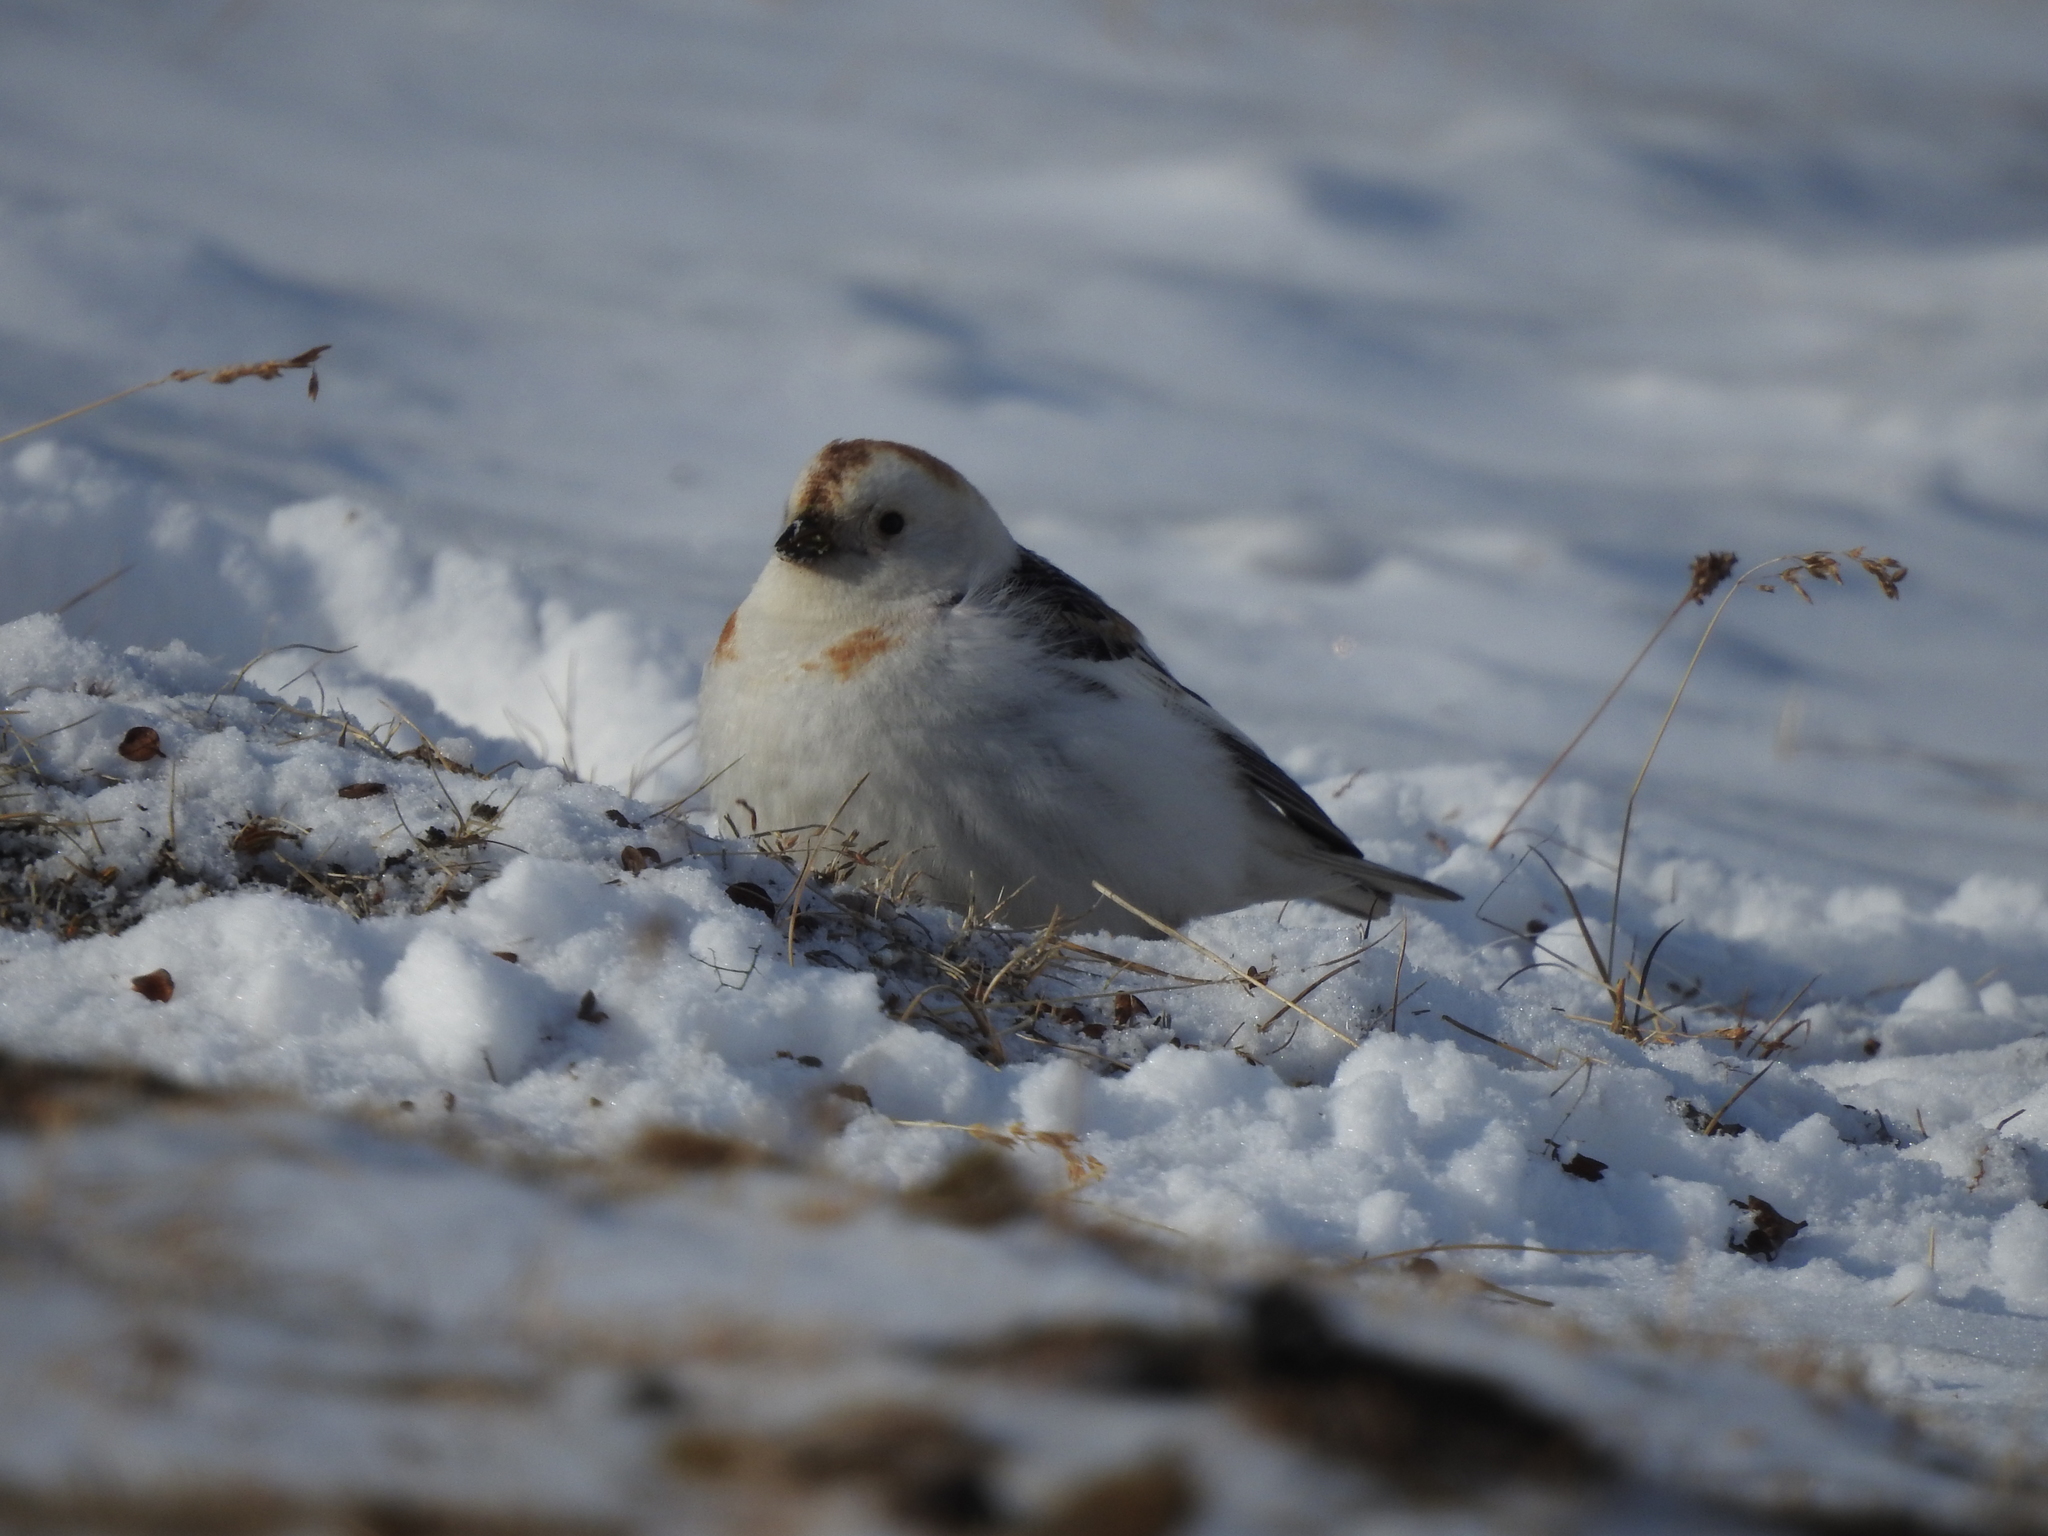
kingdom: Animalia
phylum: Chordata
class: Aves
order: Passeriformes
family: Calcariidae
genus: Plectrophenax
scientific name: Plectrophenax nivalis
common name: Snow bunting
